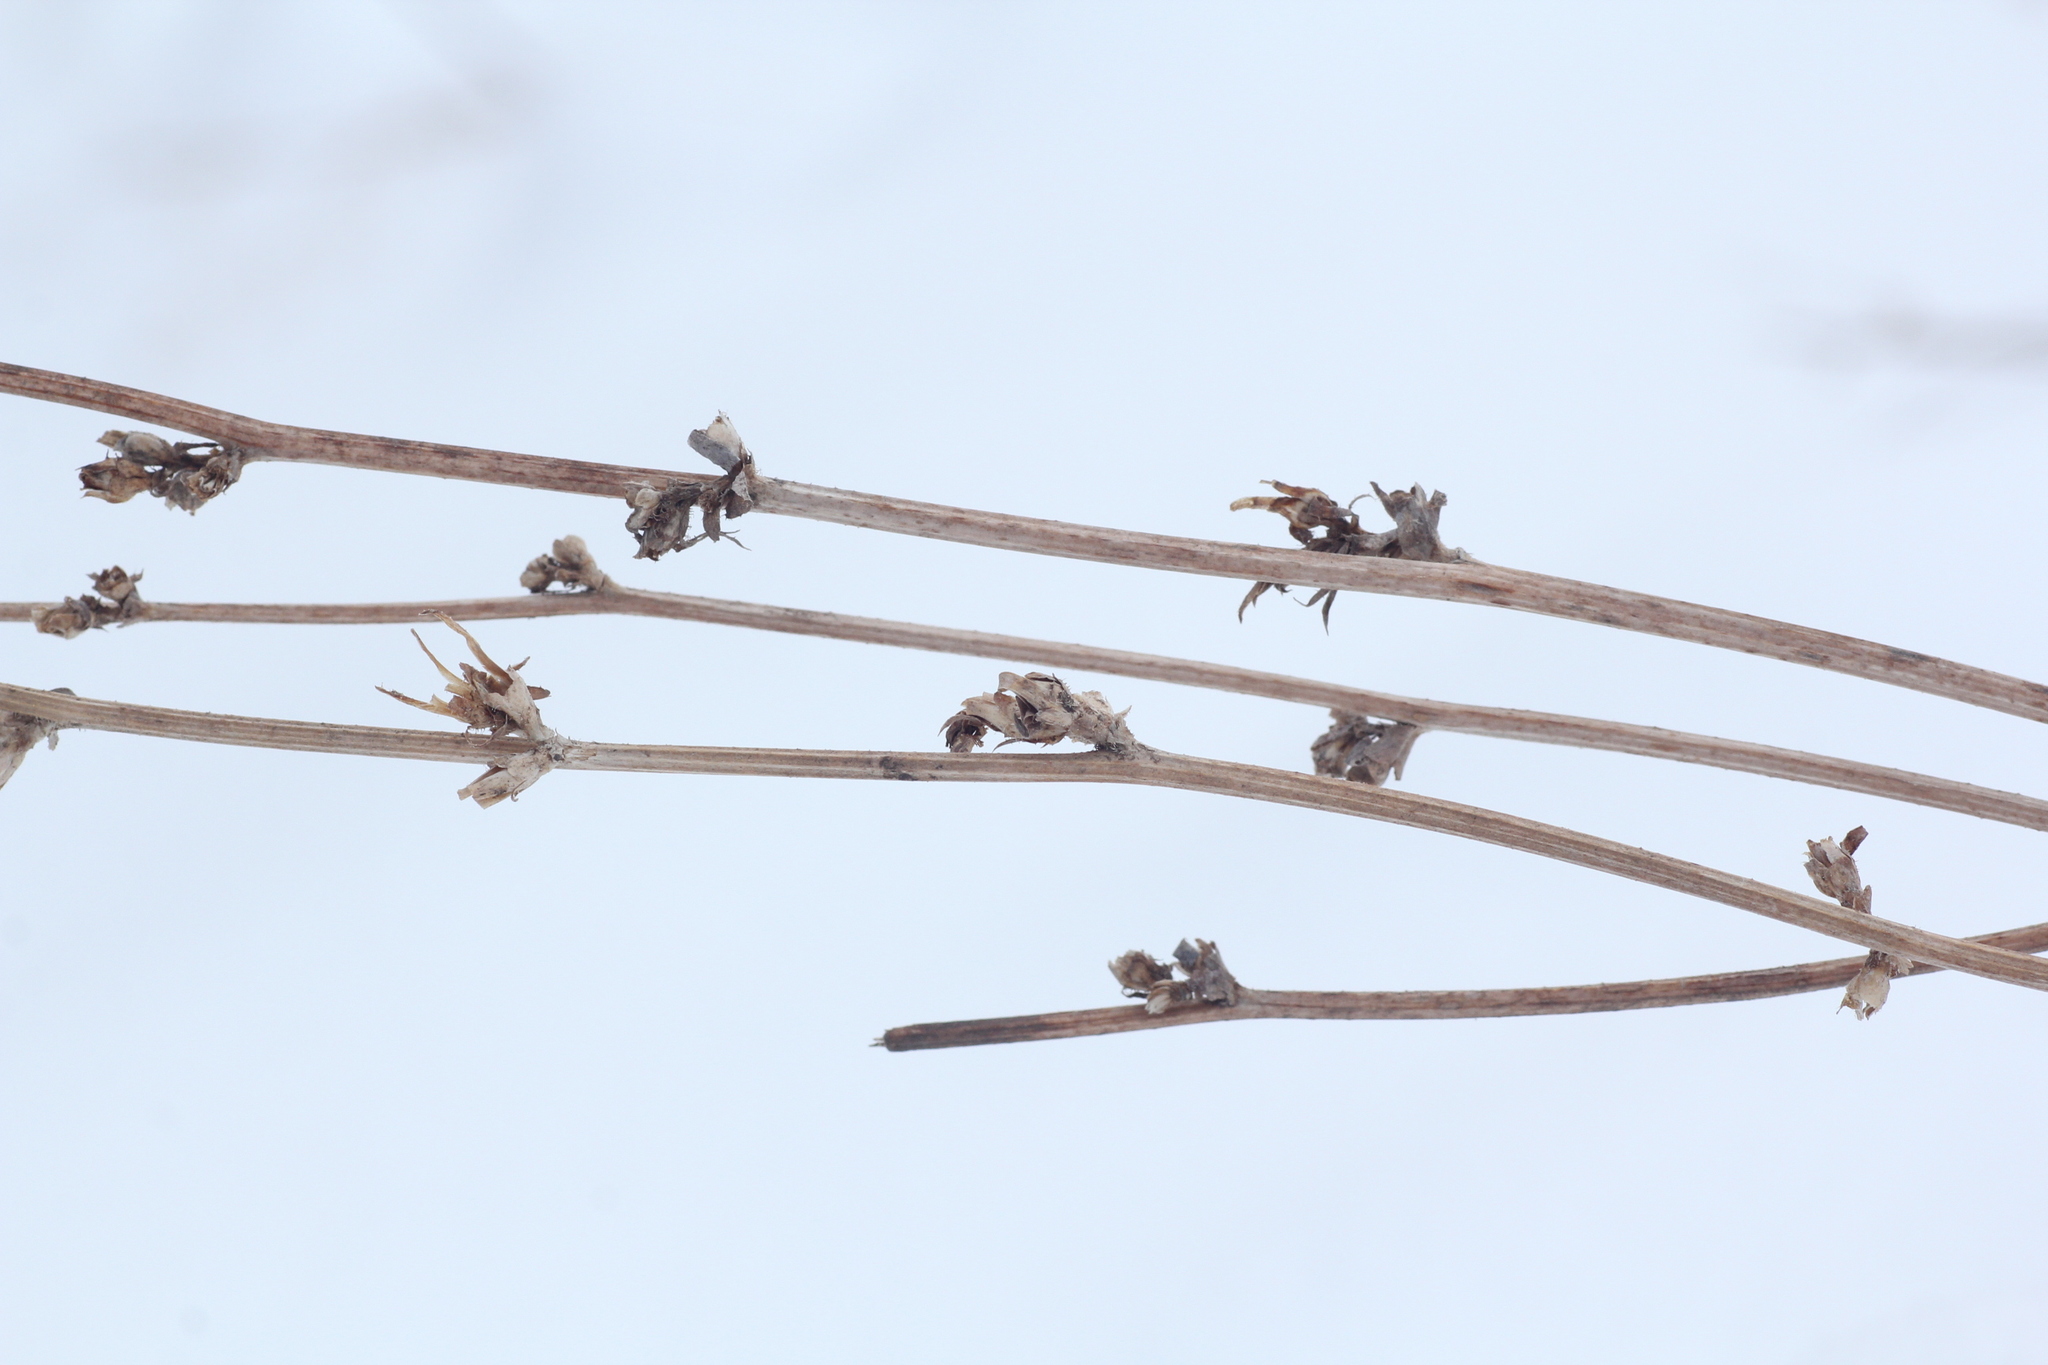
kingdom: Plantae
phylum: Tracheophyta
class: Magnoliopsida
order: Asterales
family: Asteraceae
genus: Cichorium
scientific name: Cichorium intybus
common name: Chicory
